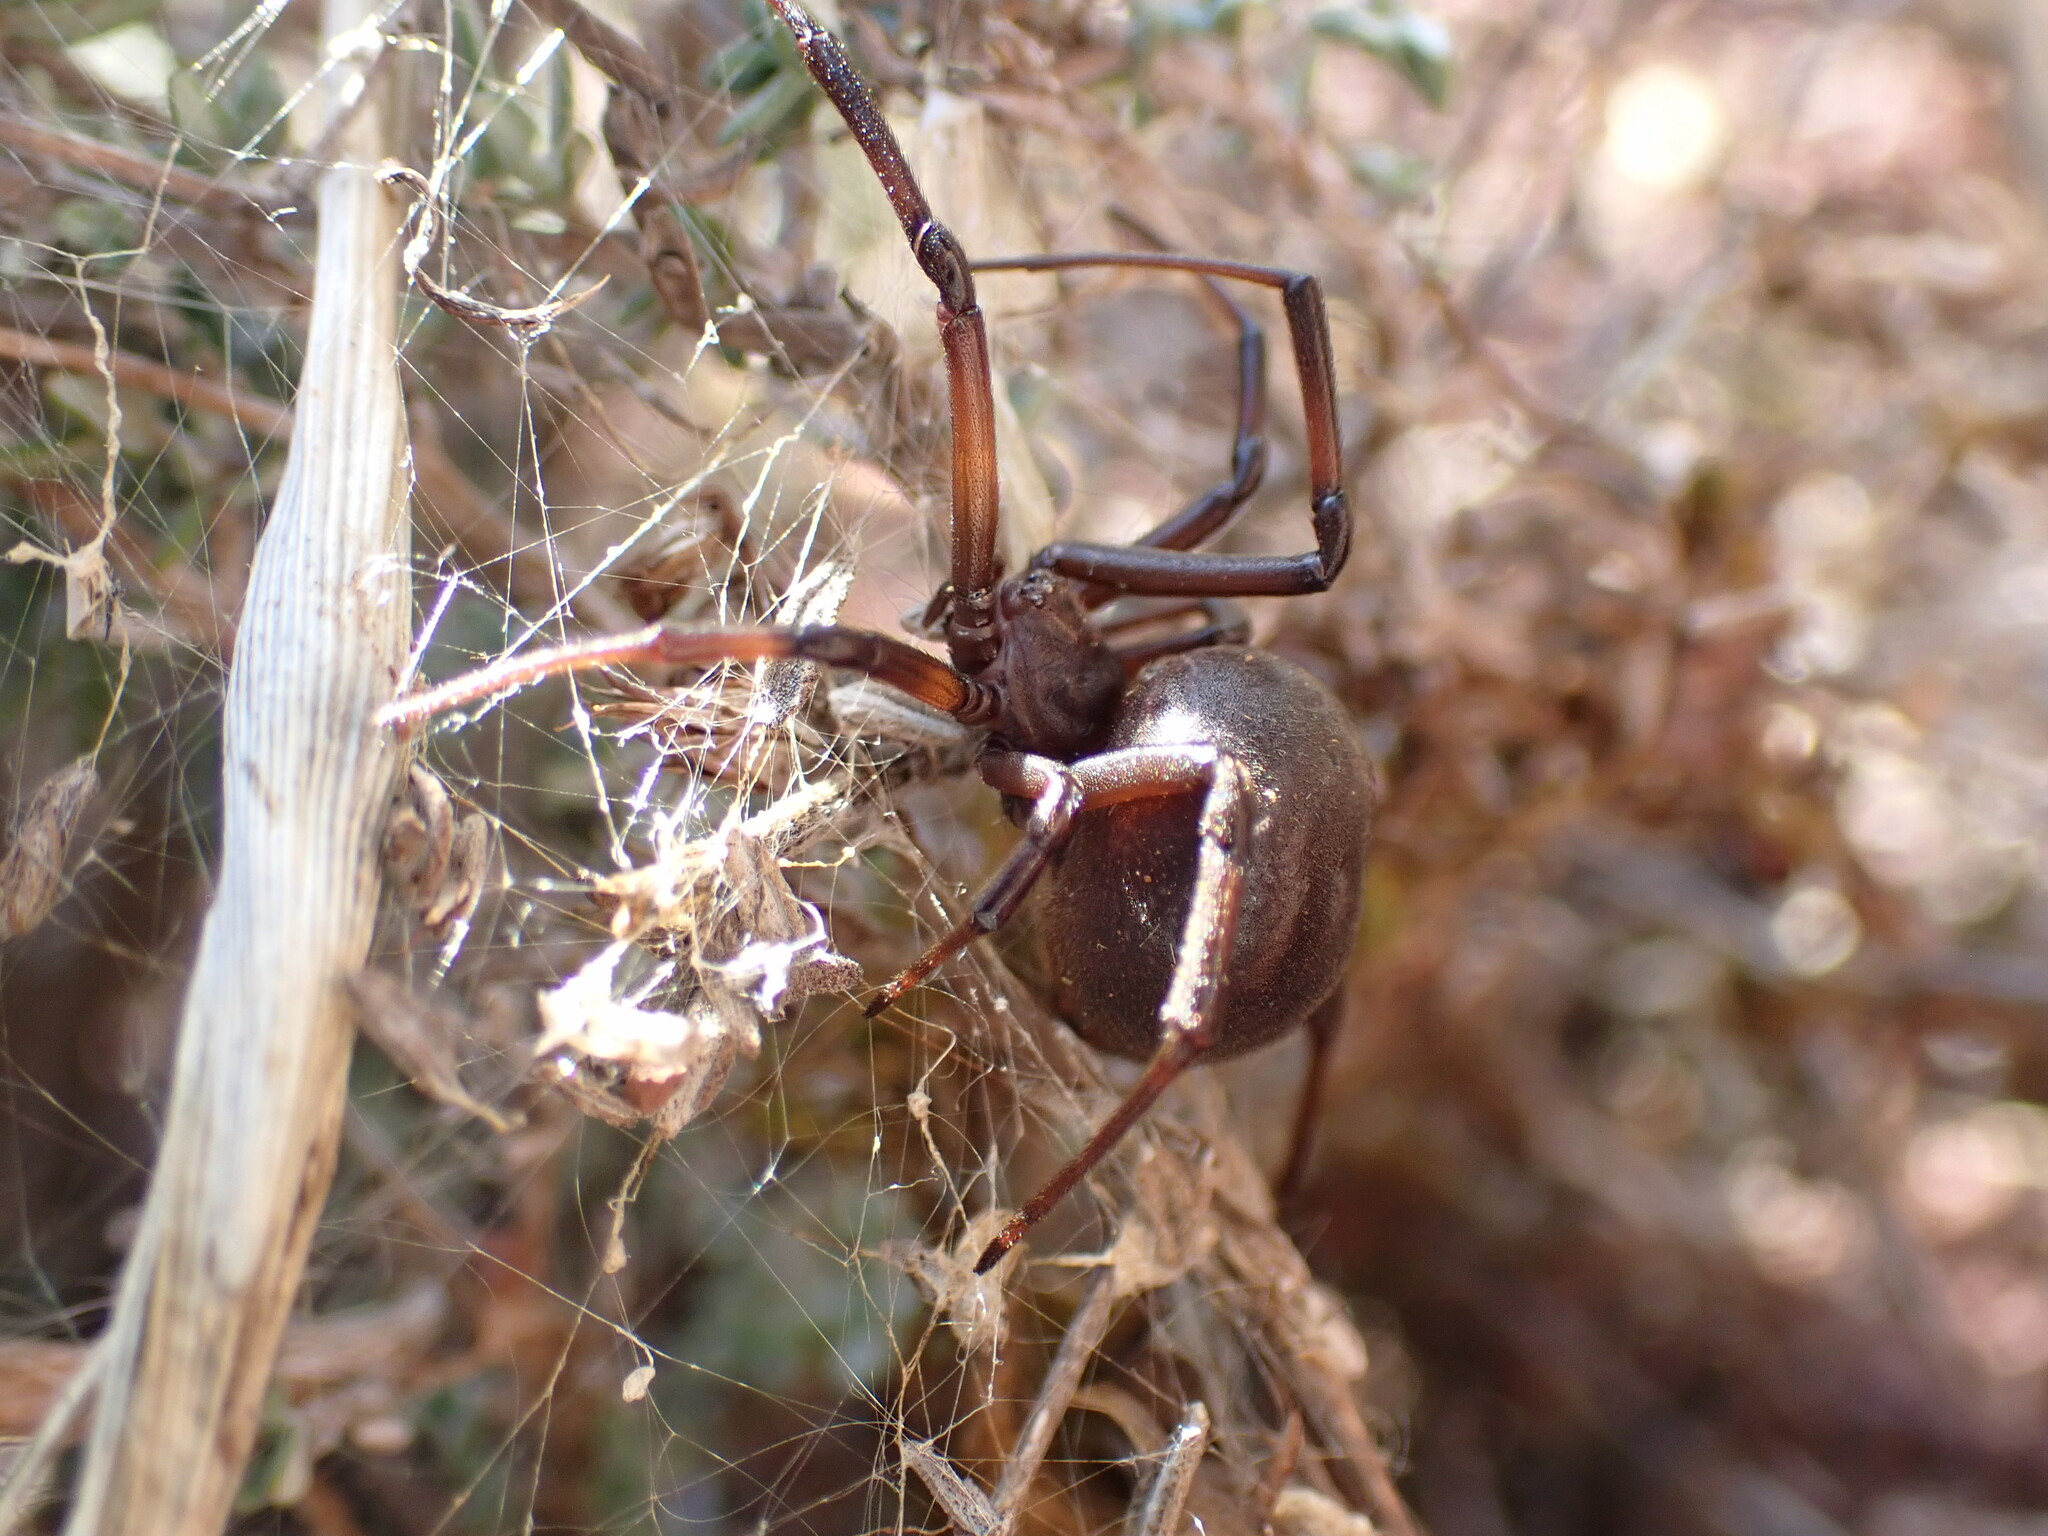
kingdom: Animalia
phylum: Arthropoda
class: Arachnida
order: Araneae
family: Theridiidae
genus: Latrodectus
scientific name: Latrodectus tredecimguttatus
